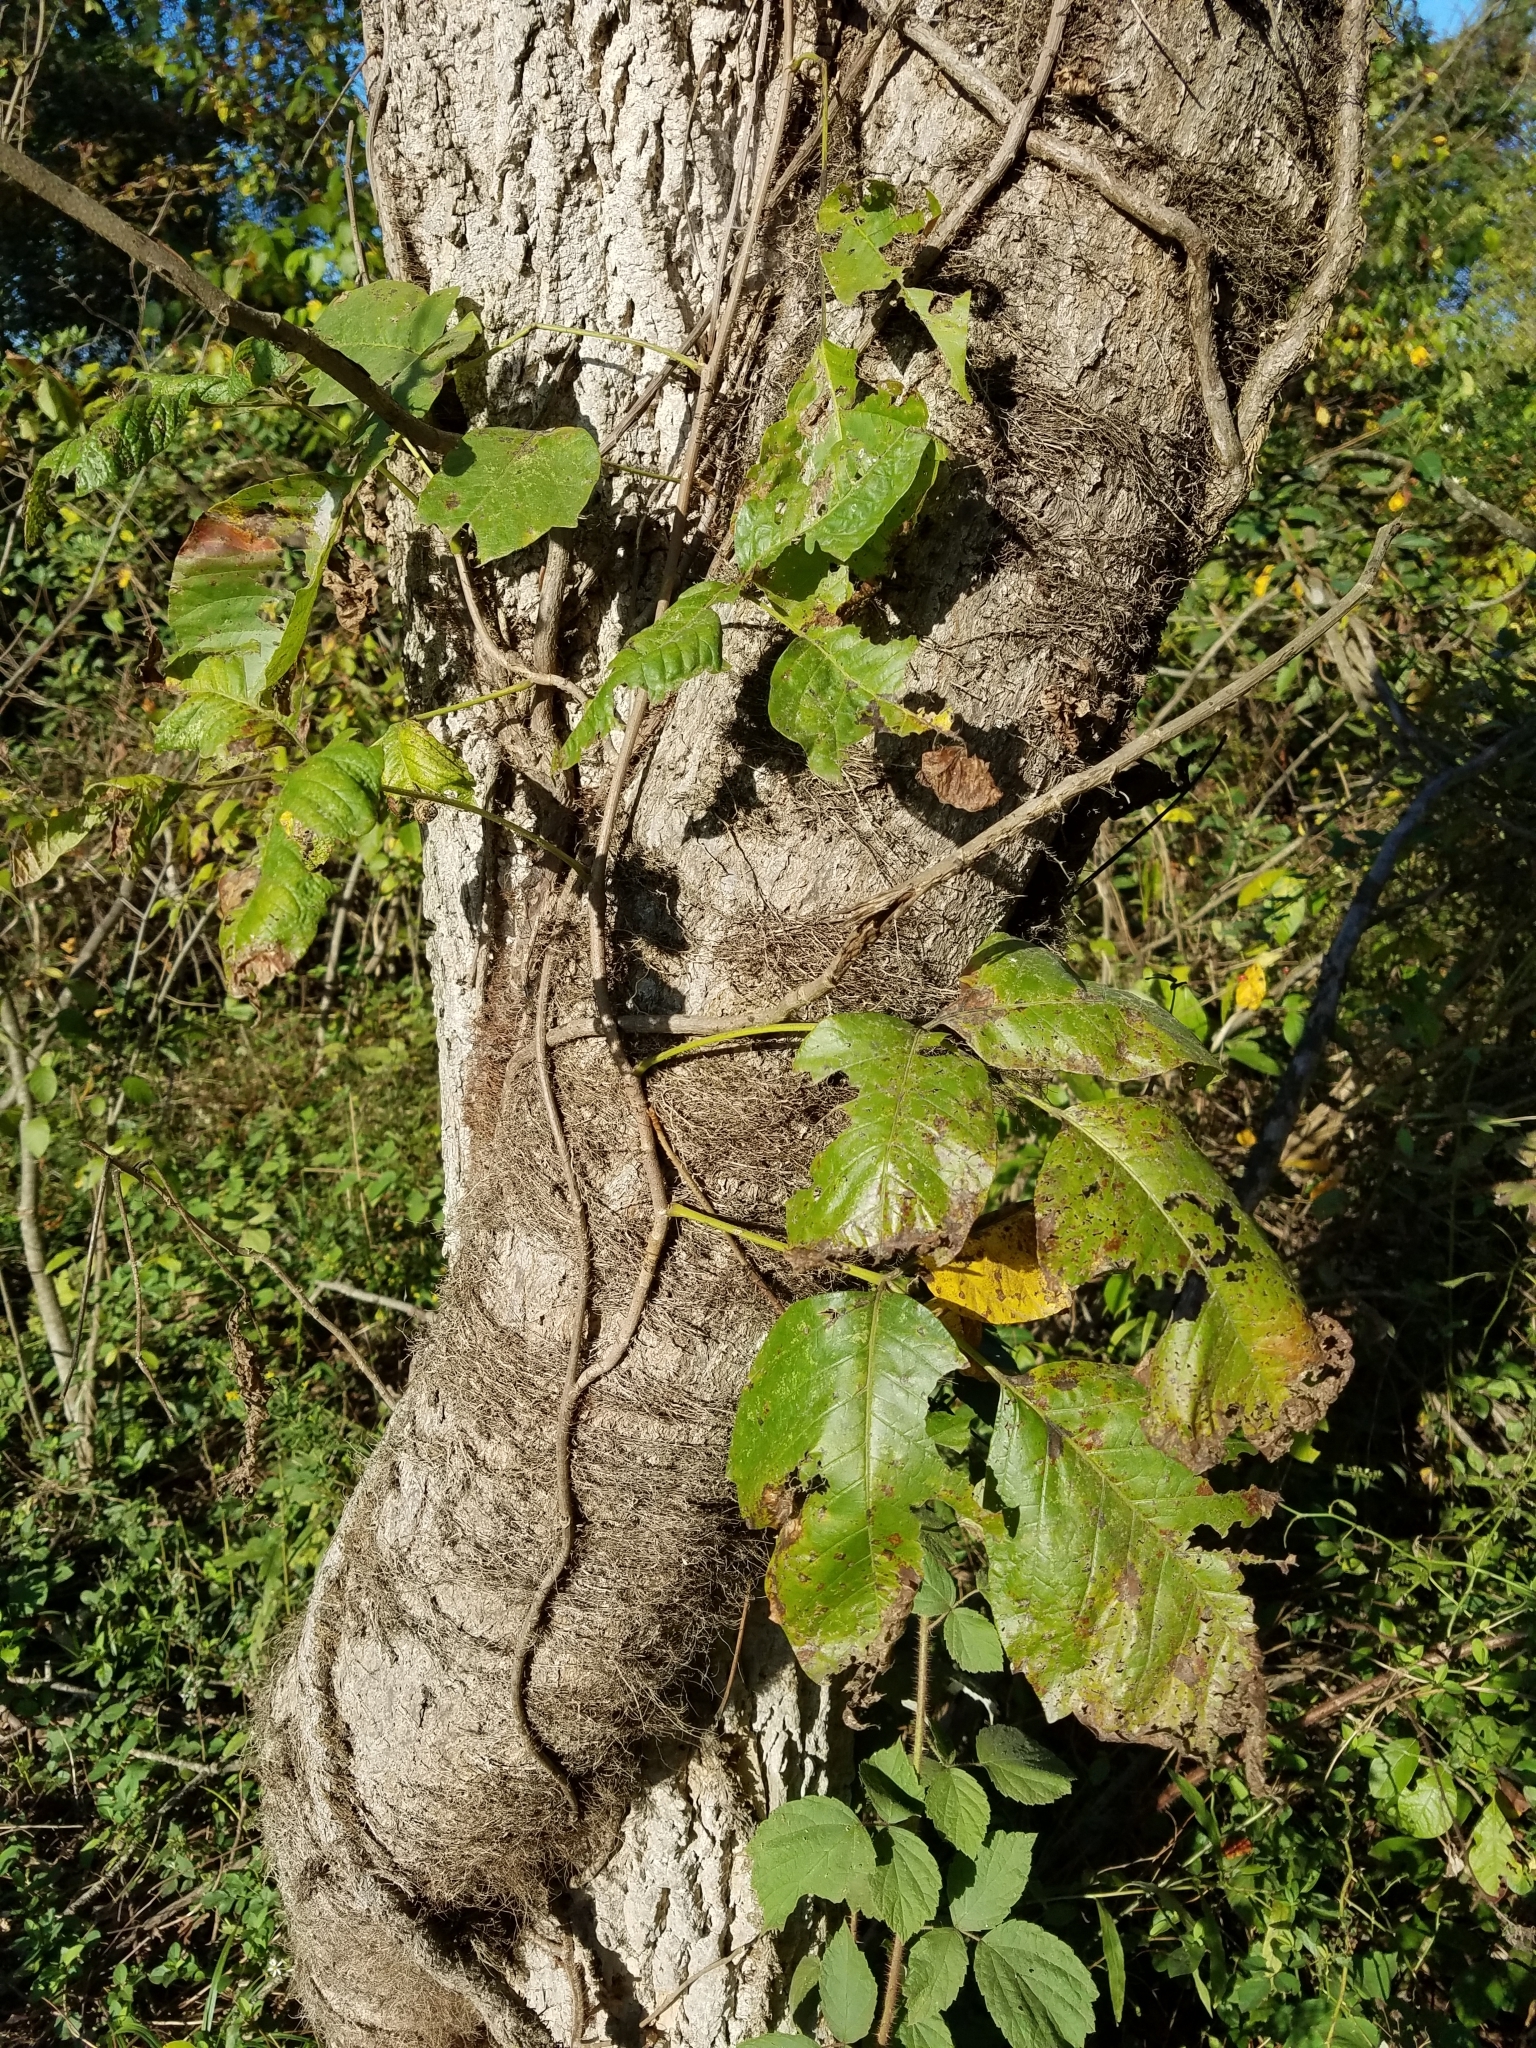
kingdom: Plantae
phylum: Tracheophyta
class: Magnoliopsida
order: Sapindales
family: Anacardiaceae
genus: Toxicodendron
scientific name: Toxicodendron radicans
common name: Poison ivy
